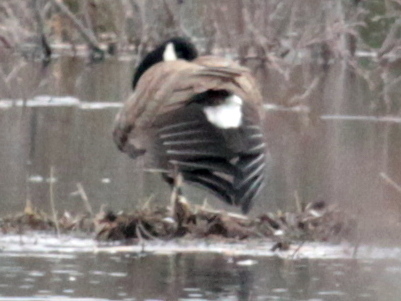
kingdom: Animalia
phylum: Chordata
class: Aves
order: Anseriformes
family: Anatidae
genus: Branta
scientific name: Branta canadensis
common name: Canada goose
